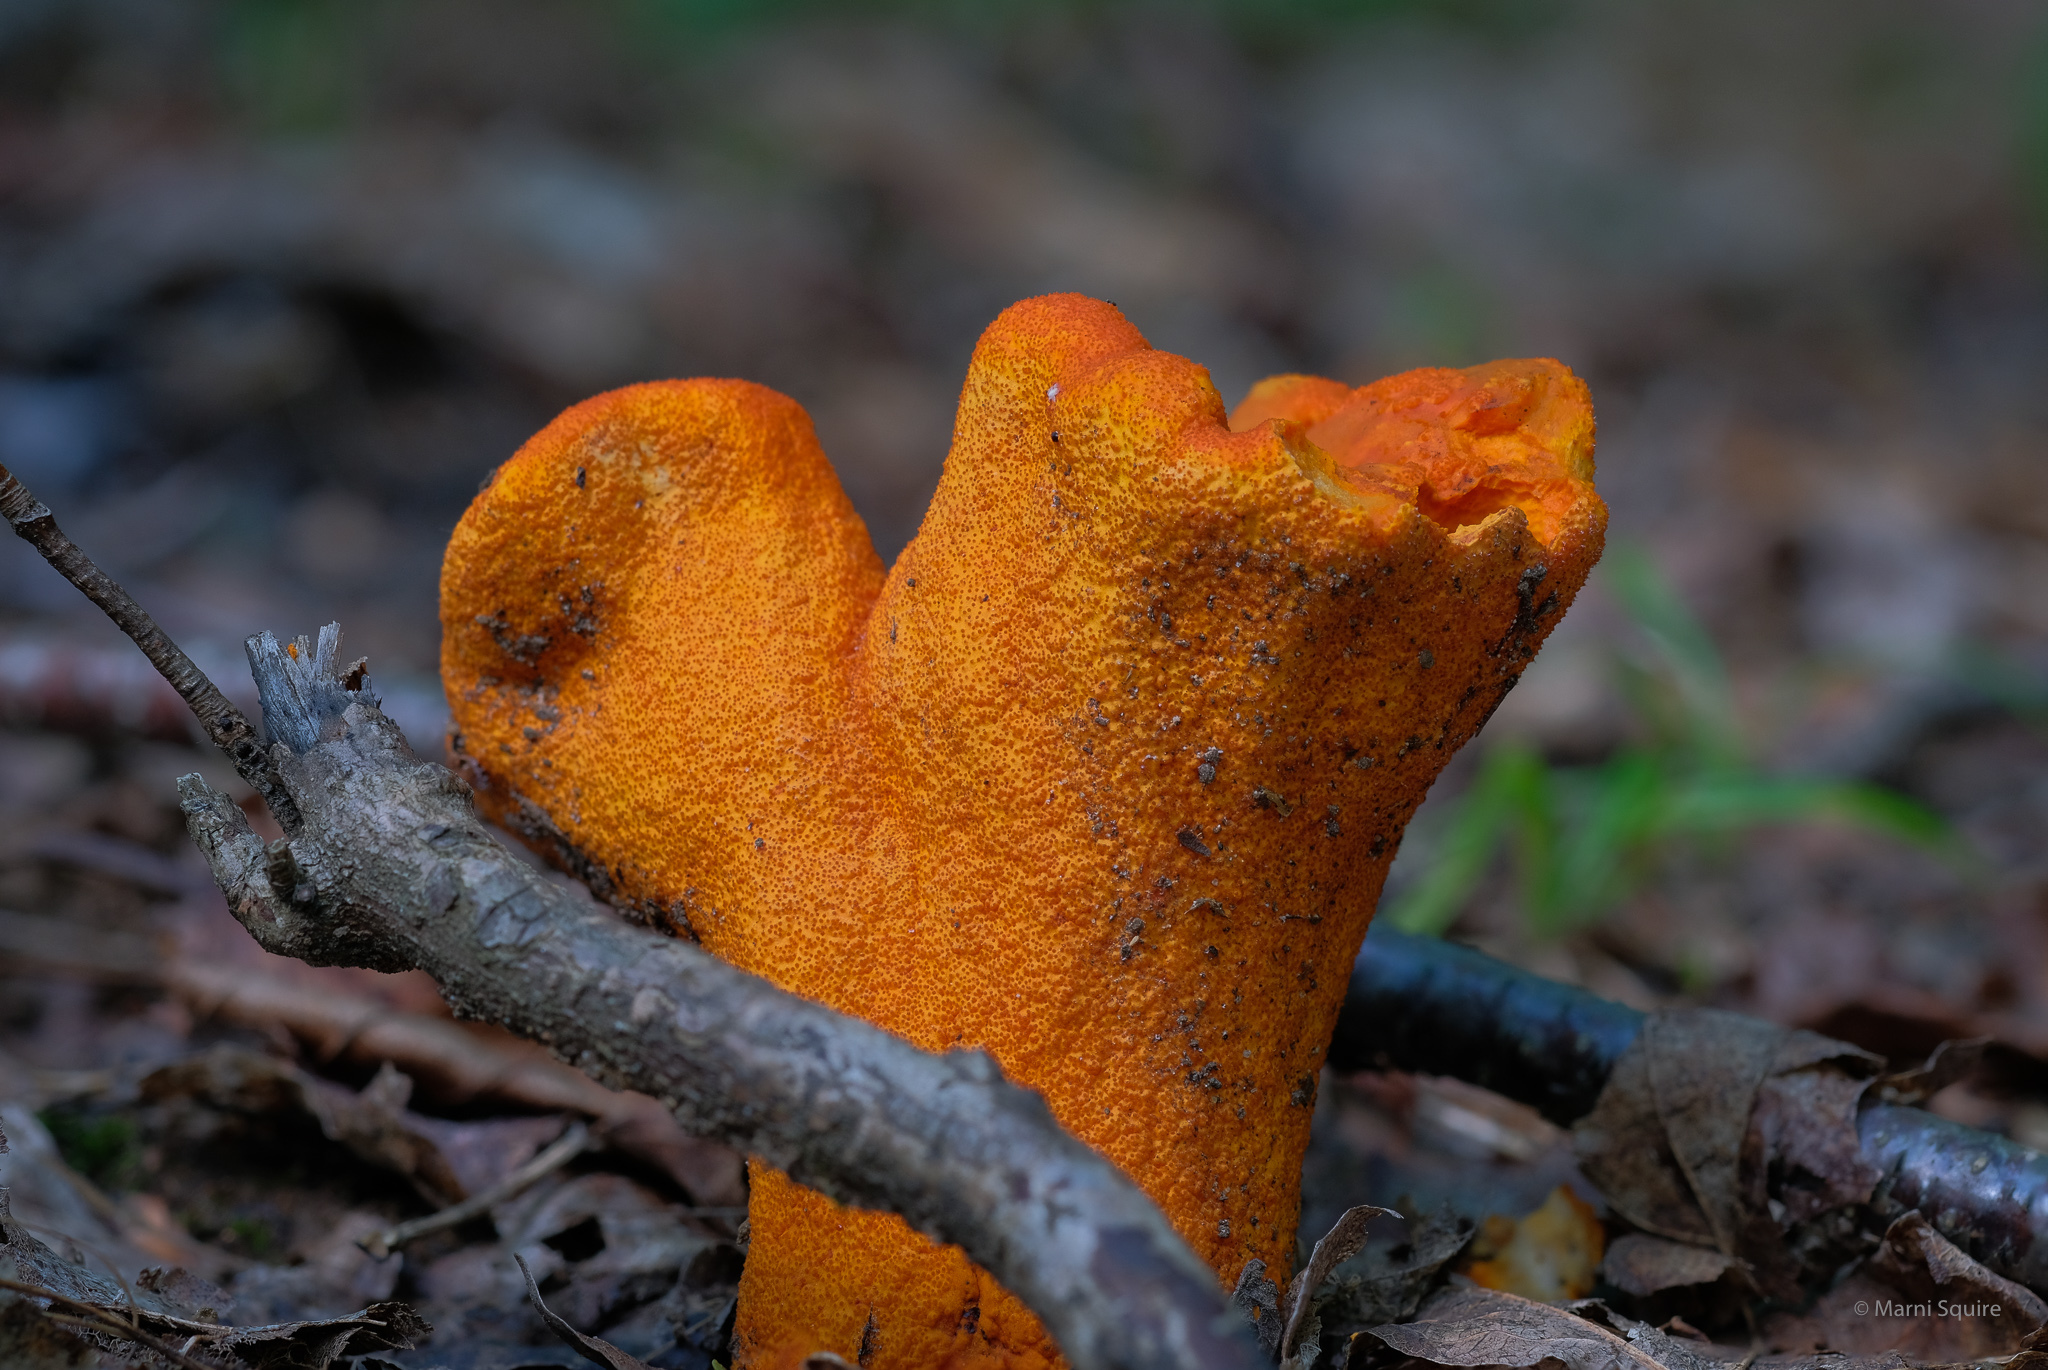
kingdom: Fungi
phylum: Ascomycota
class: Sordariomycetes
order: Hypocreales
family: Hypocreaceae
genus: Hypomyces
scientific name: Hypomyces lactifluorum
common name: Lobster mushroom
